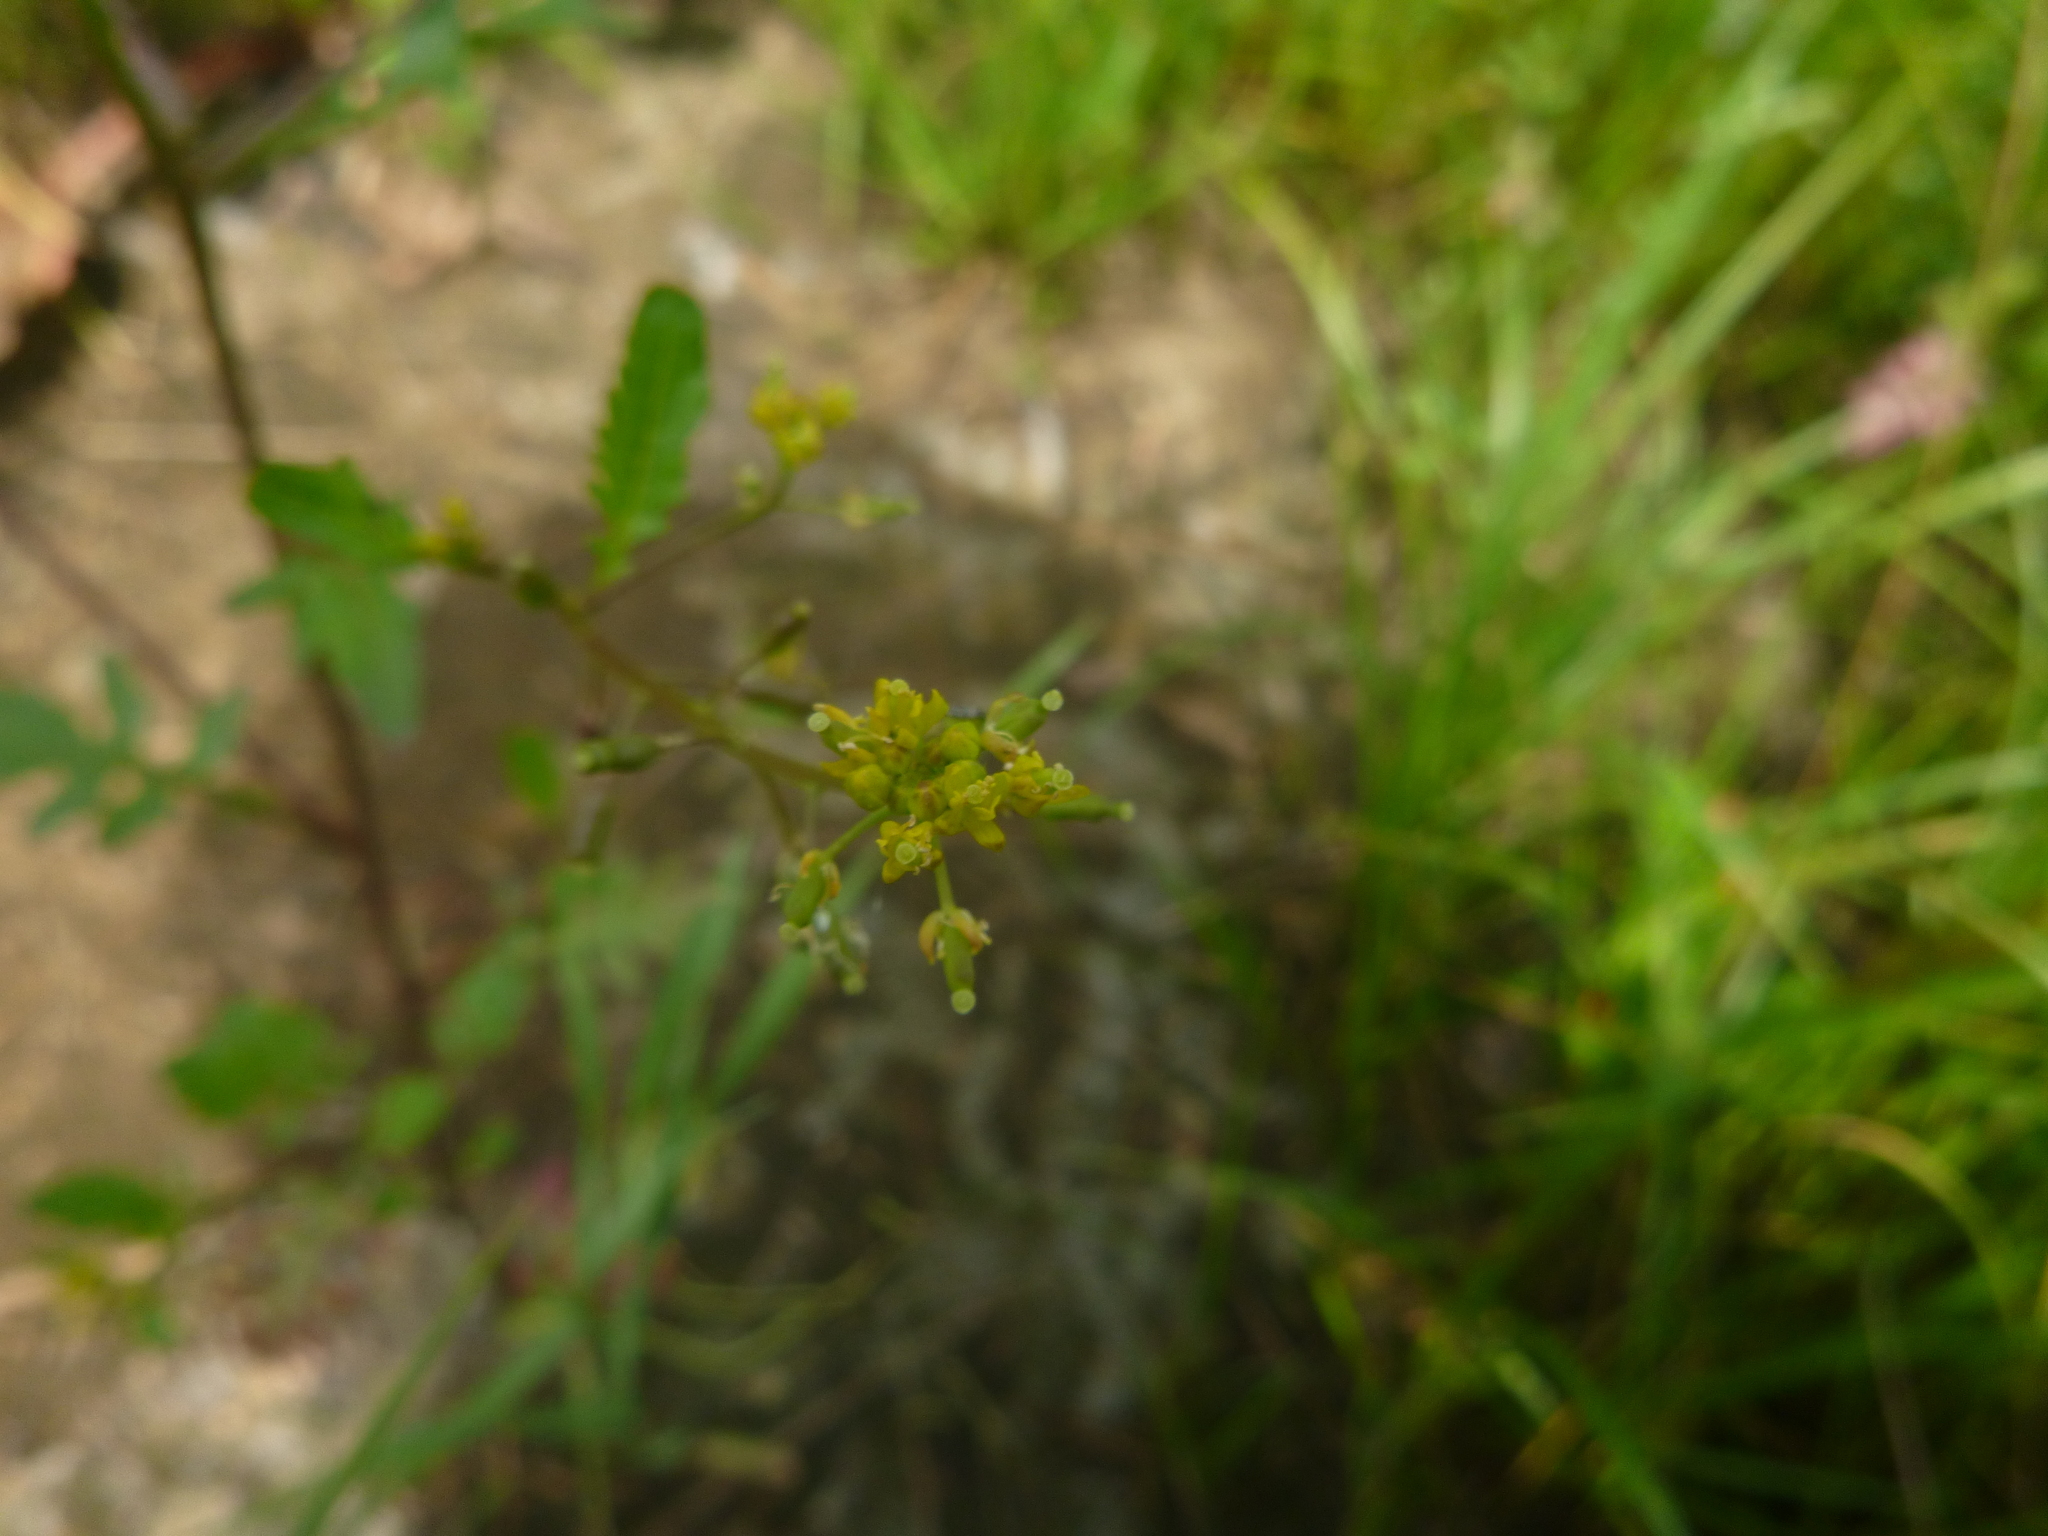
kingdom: Plantae
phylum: Tracheophyta
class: Magnoliopsida
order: Brassicales
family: Brassicaceae
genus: Rorippa
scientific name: Rorippa palustris
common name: Marsh yellow-cress
